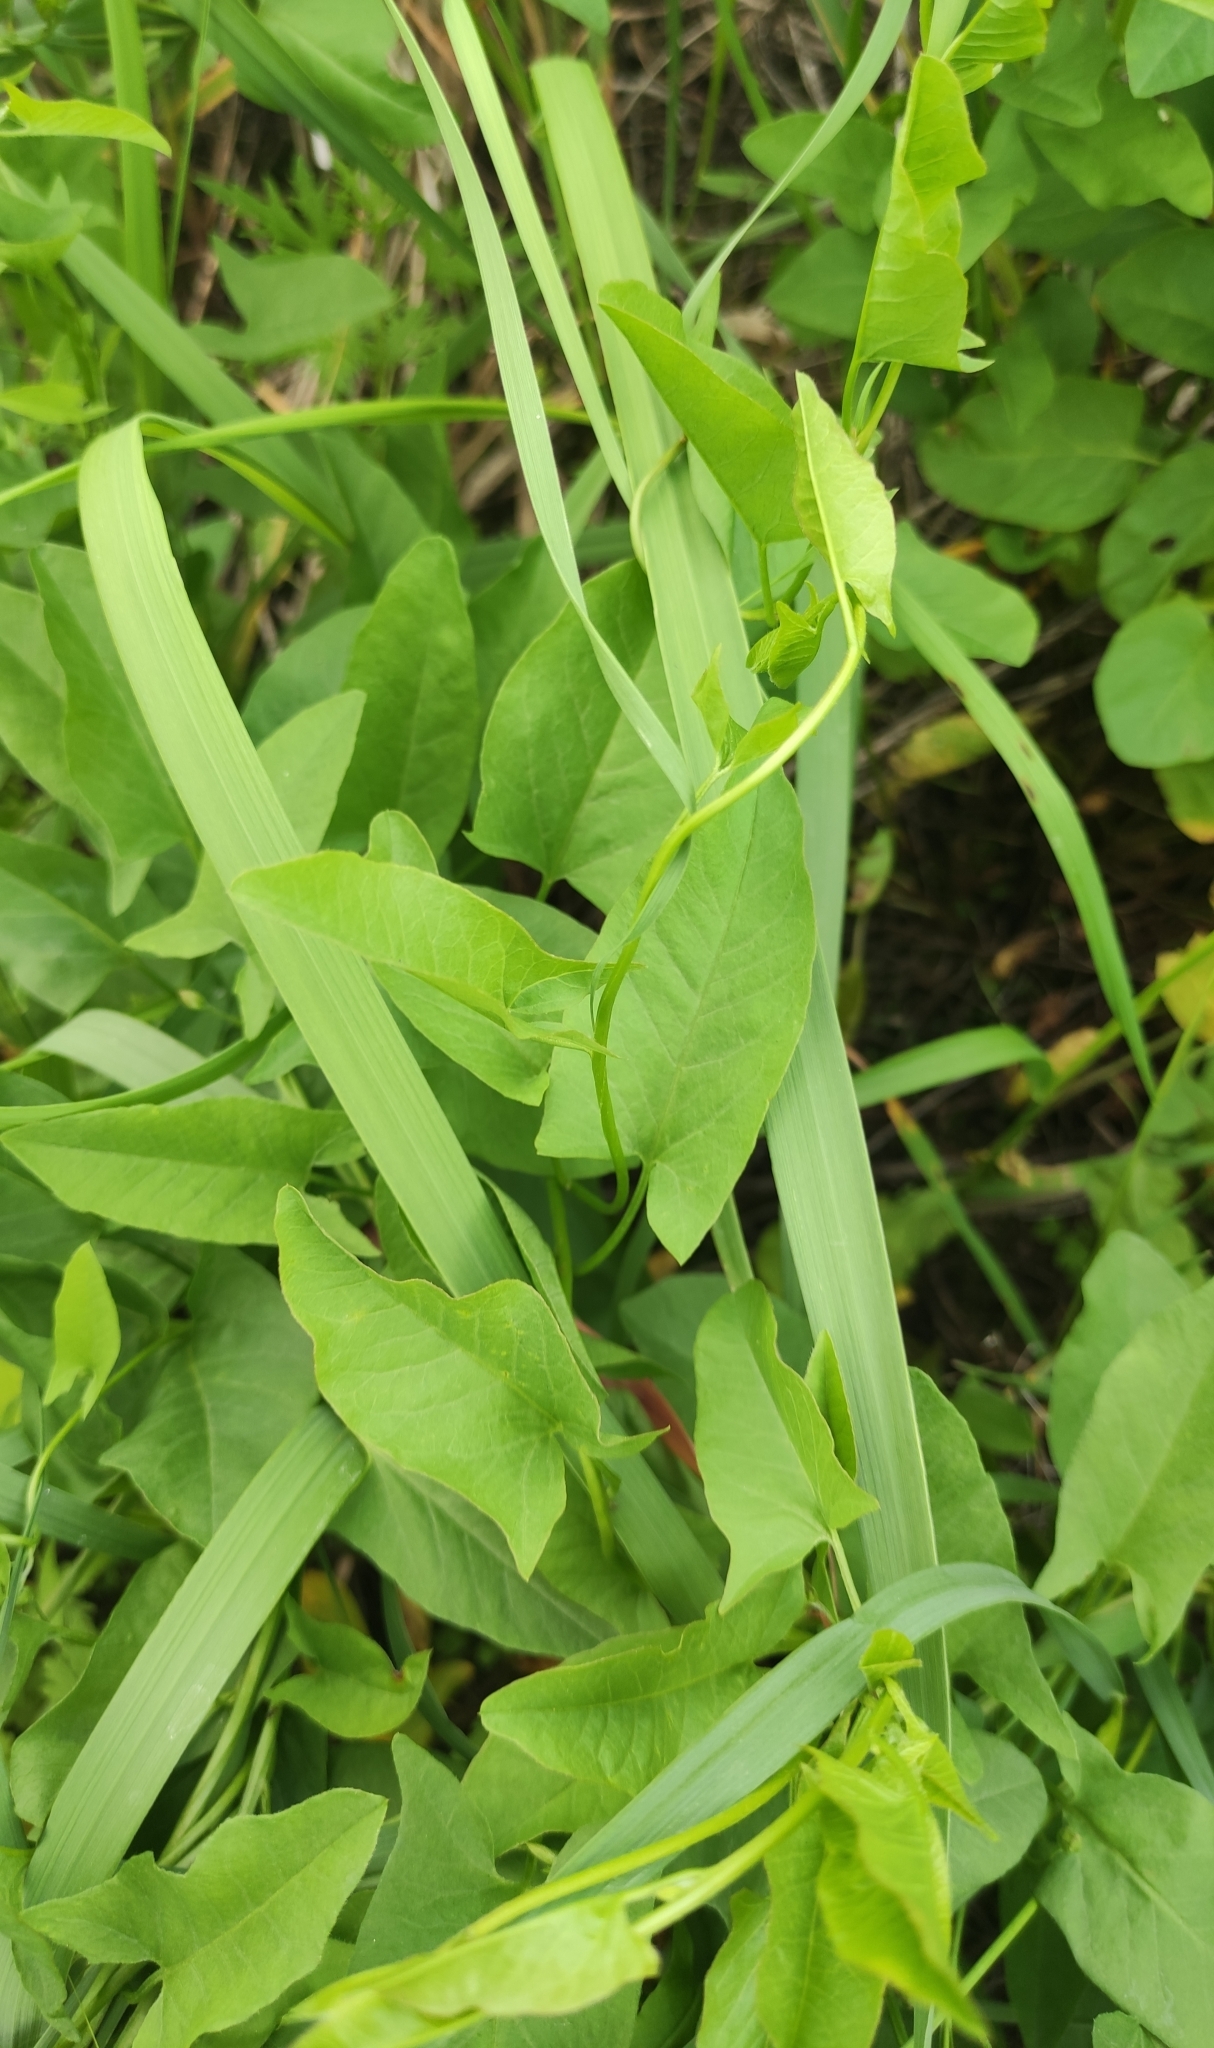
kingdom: Plantae
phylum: Tracheophyta
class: Magnoliopsida
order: Solanales
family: Convolvulaceae
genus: Convolvulus
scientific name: Convolvulus arvensis
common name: Field bindweed
